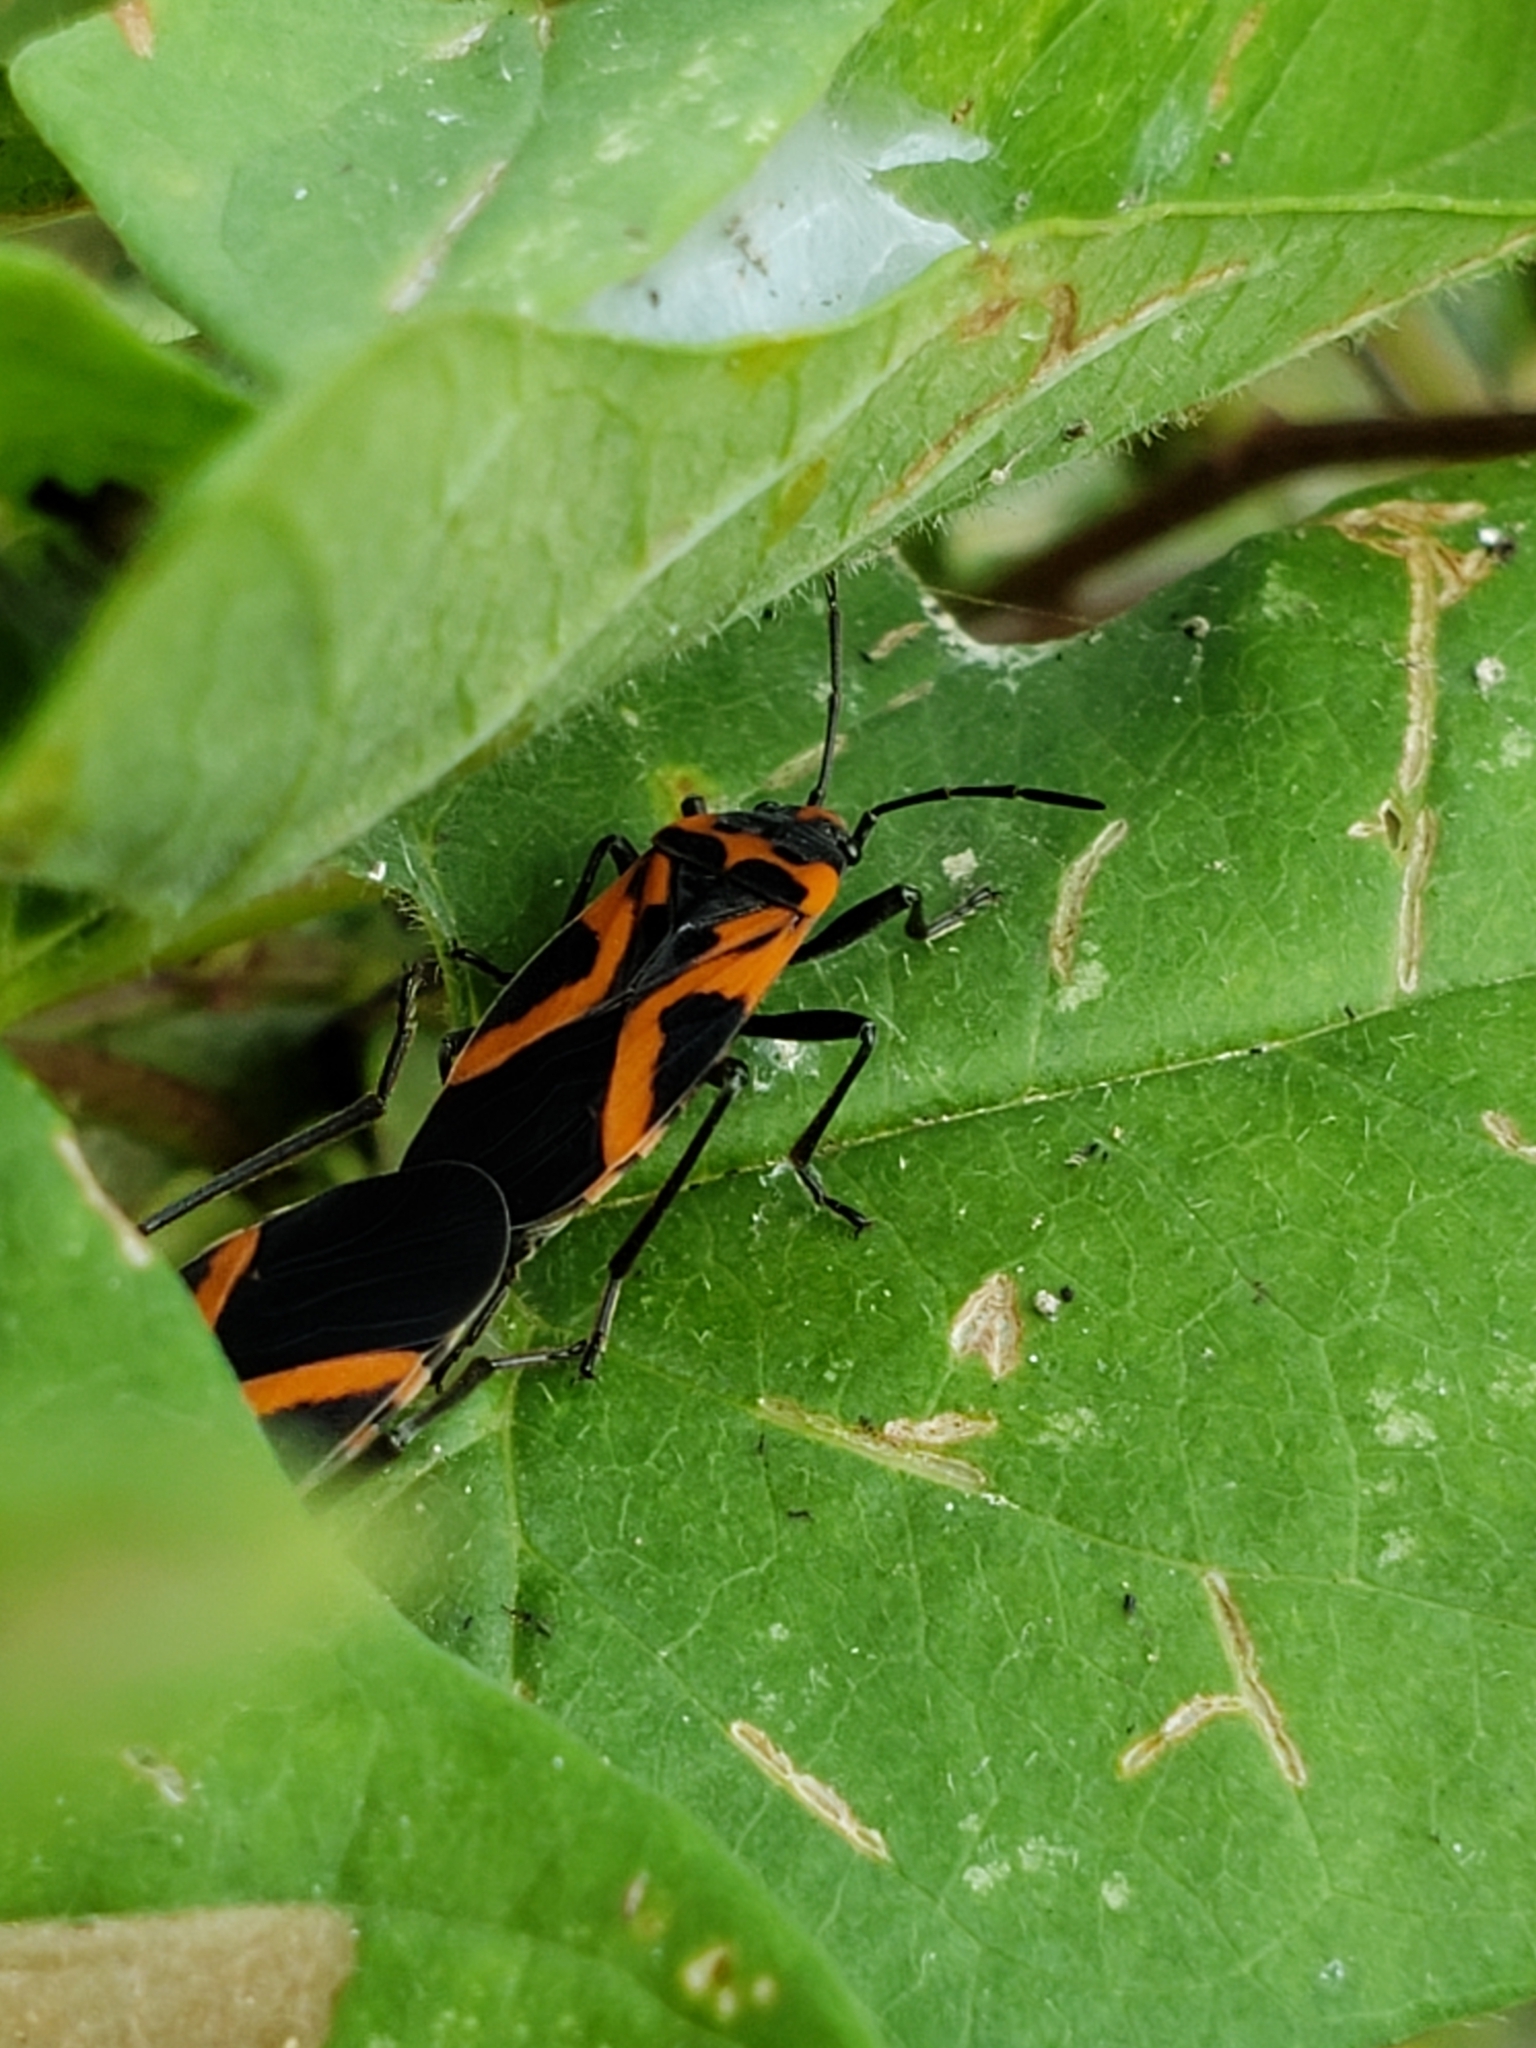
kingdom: Animalia
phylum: Arthropoda
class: Insecta
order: Hemiptera
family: Lygaeidae
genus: Lygaeus
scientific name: Lygaeus turcicus
